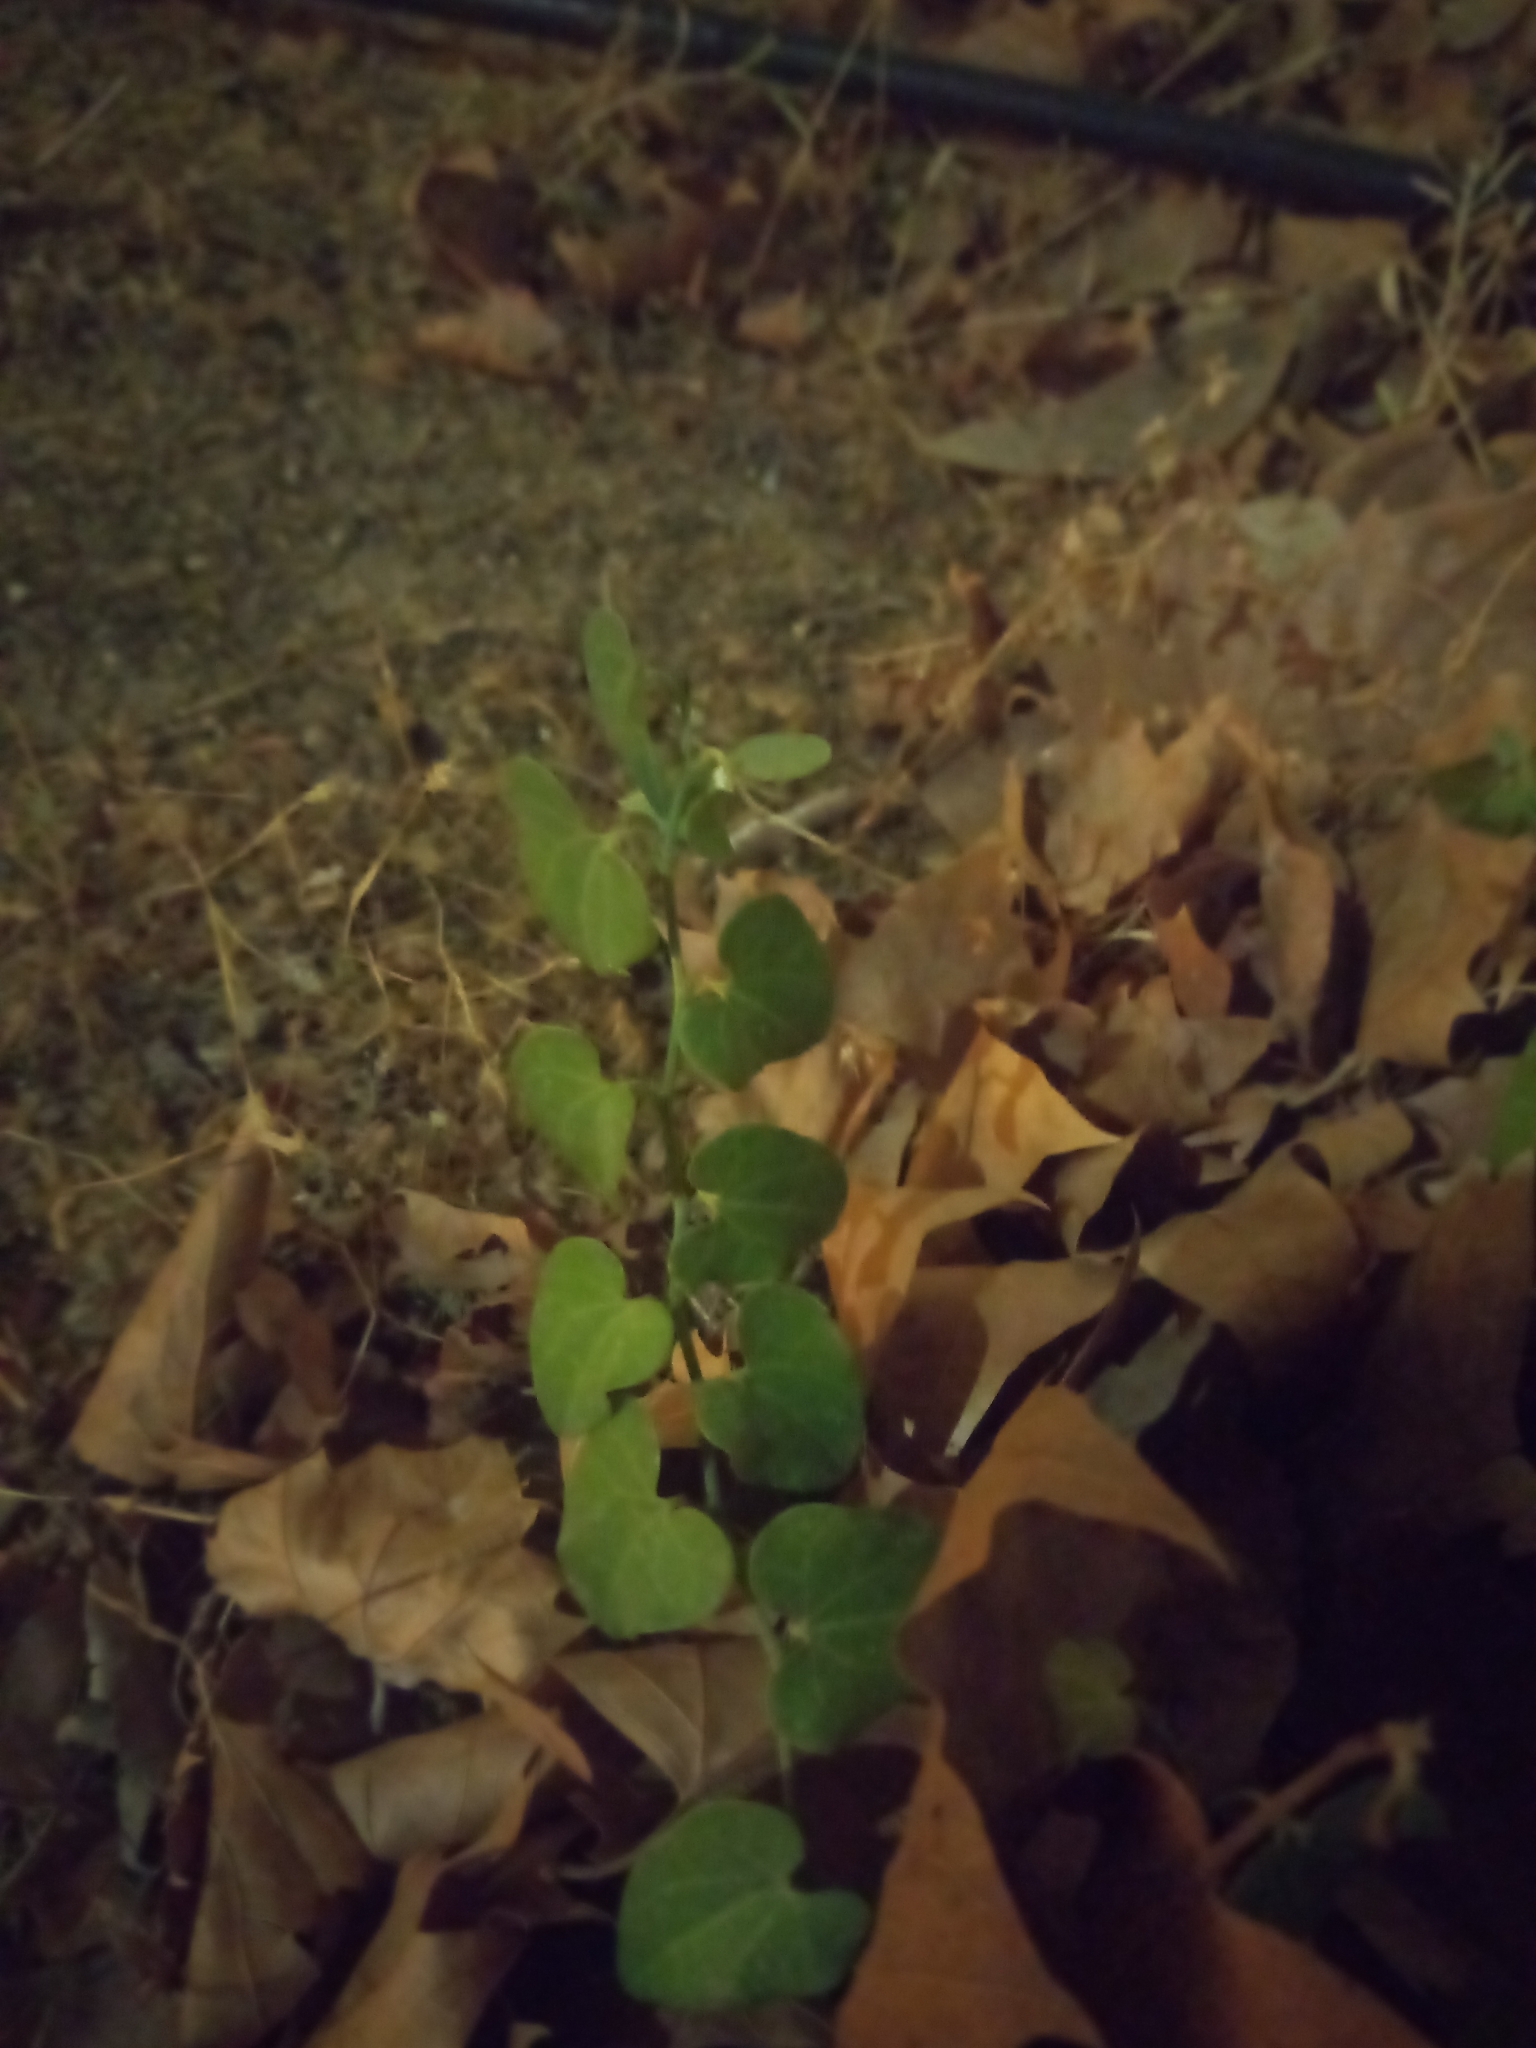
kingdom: Plantae
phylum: Tracheophyta
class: Magnoliopsida
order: Piperales
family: Aristolochiaceae
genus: Aristolochia
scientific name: Aristolochia baetica
